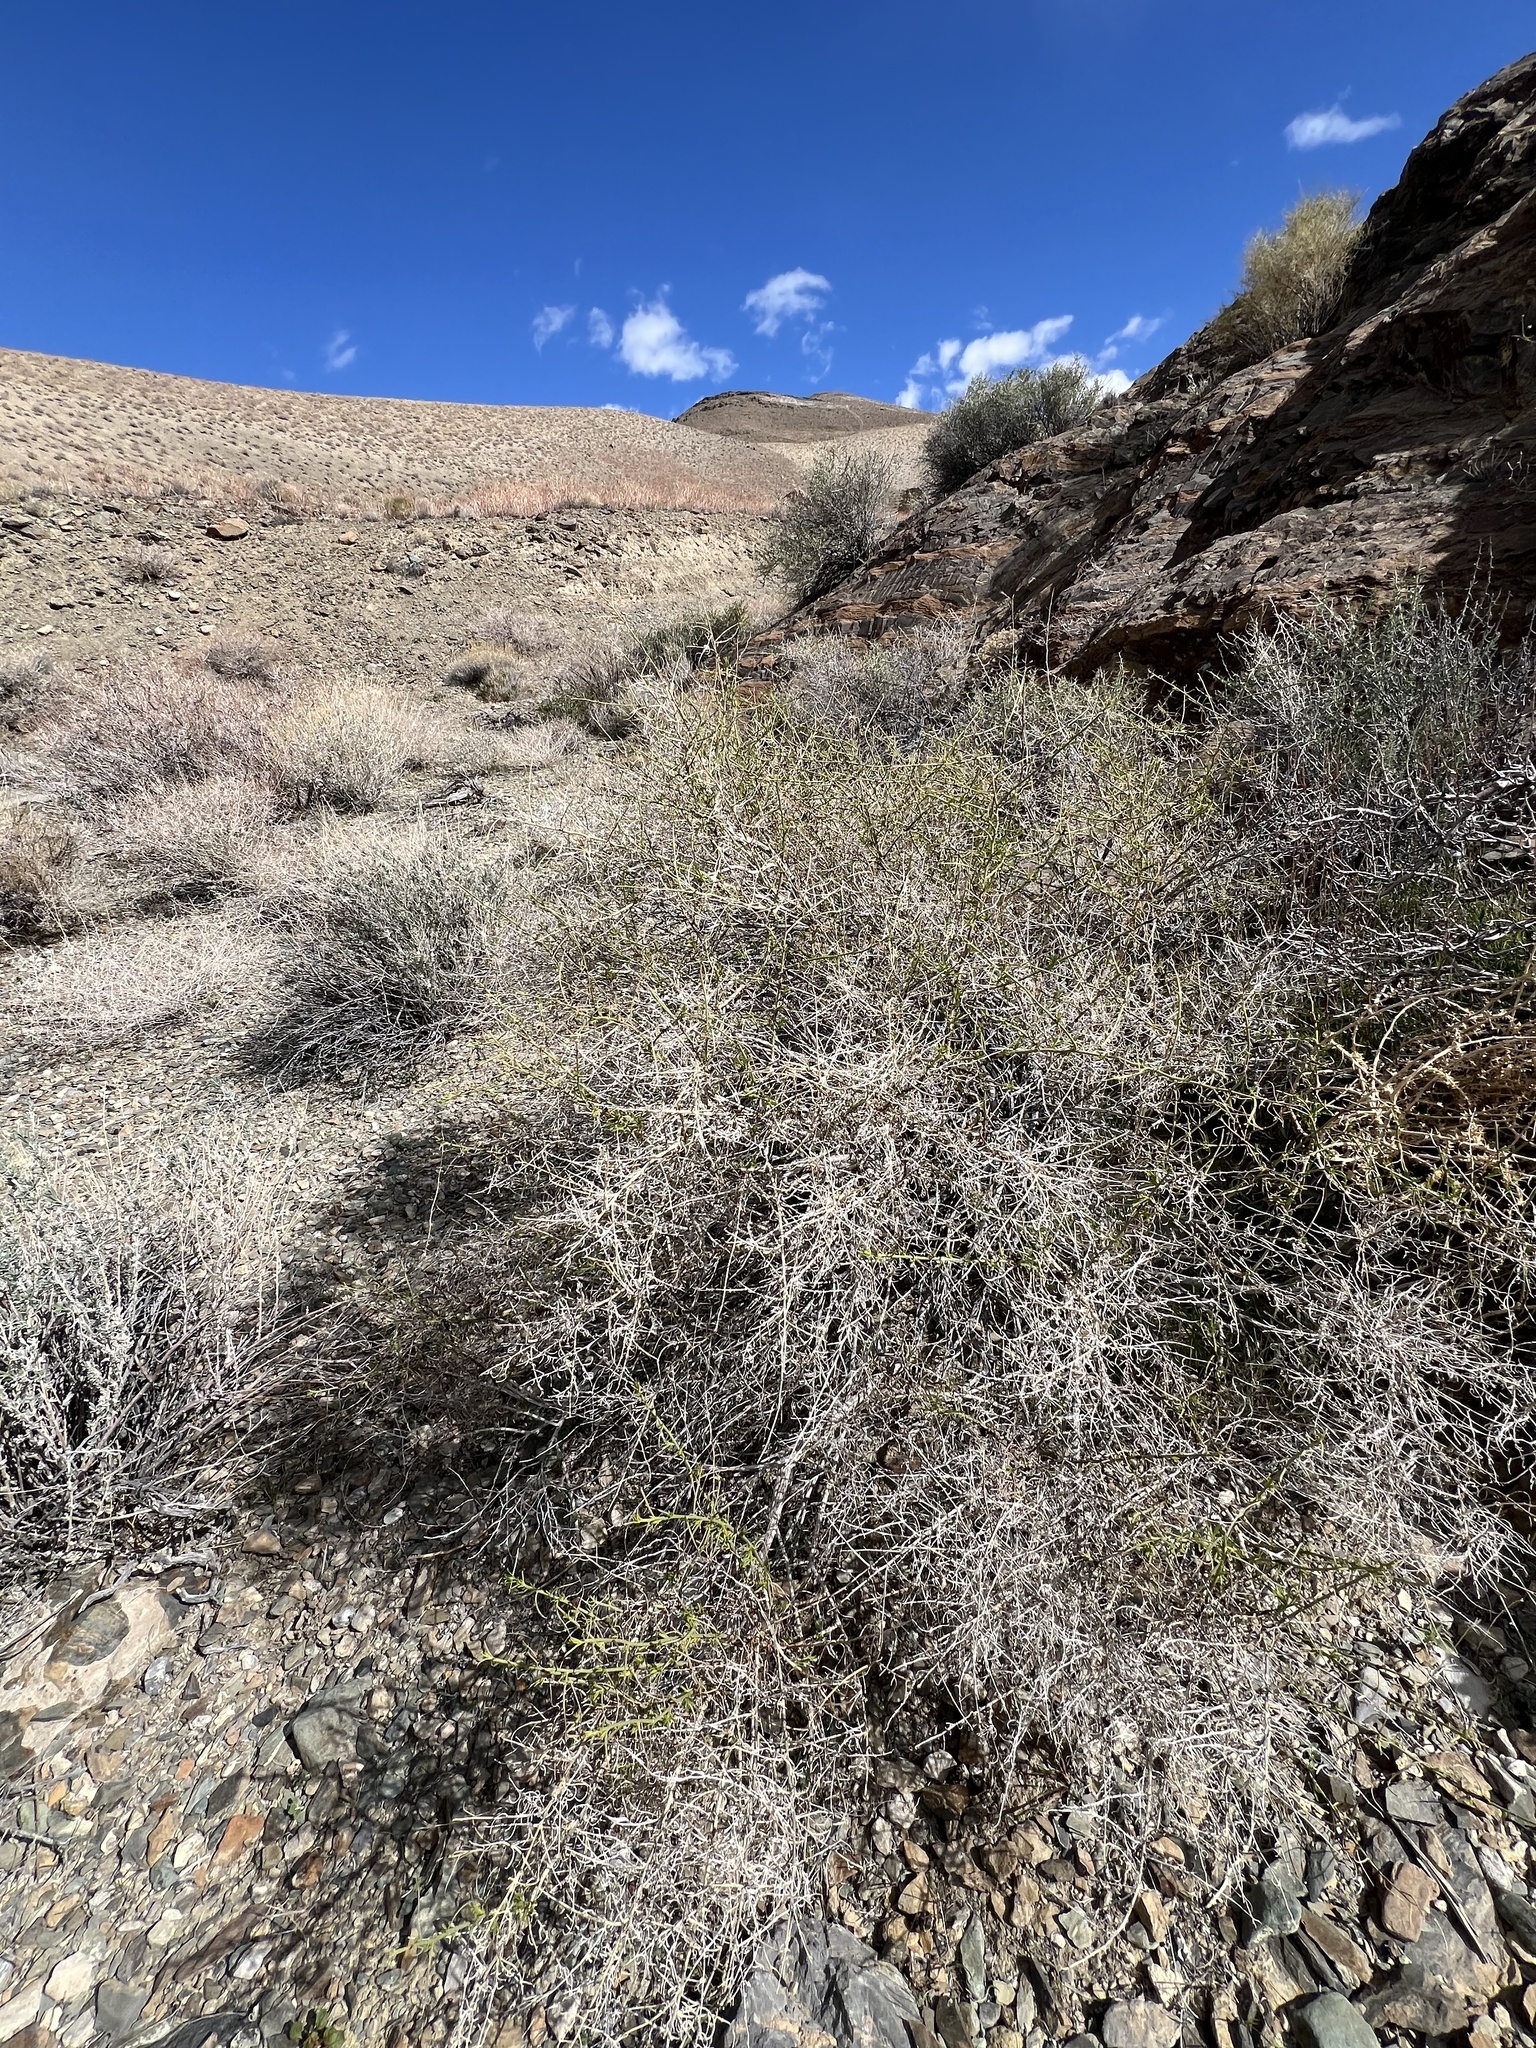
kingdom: Plantae
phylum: Tracheophyta
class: Magnoliopsida
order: Asterales
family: Asteraceae
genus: Ambrosia
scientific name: Ambrosia salsola
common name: Burrobrush
